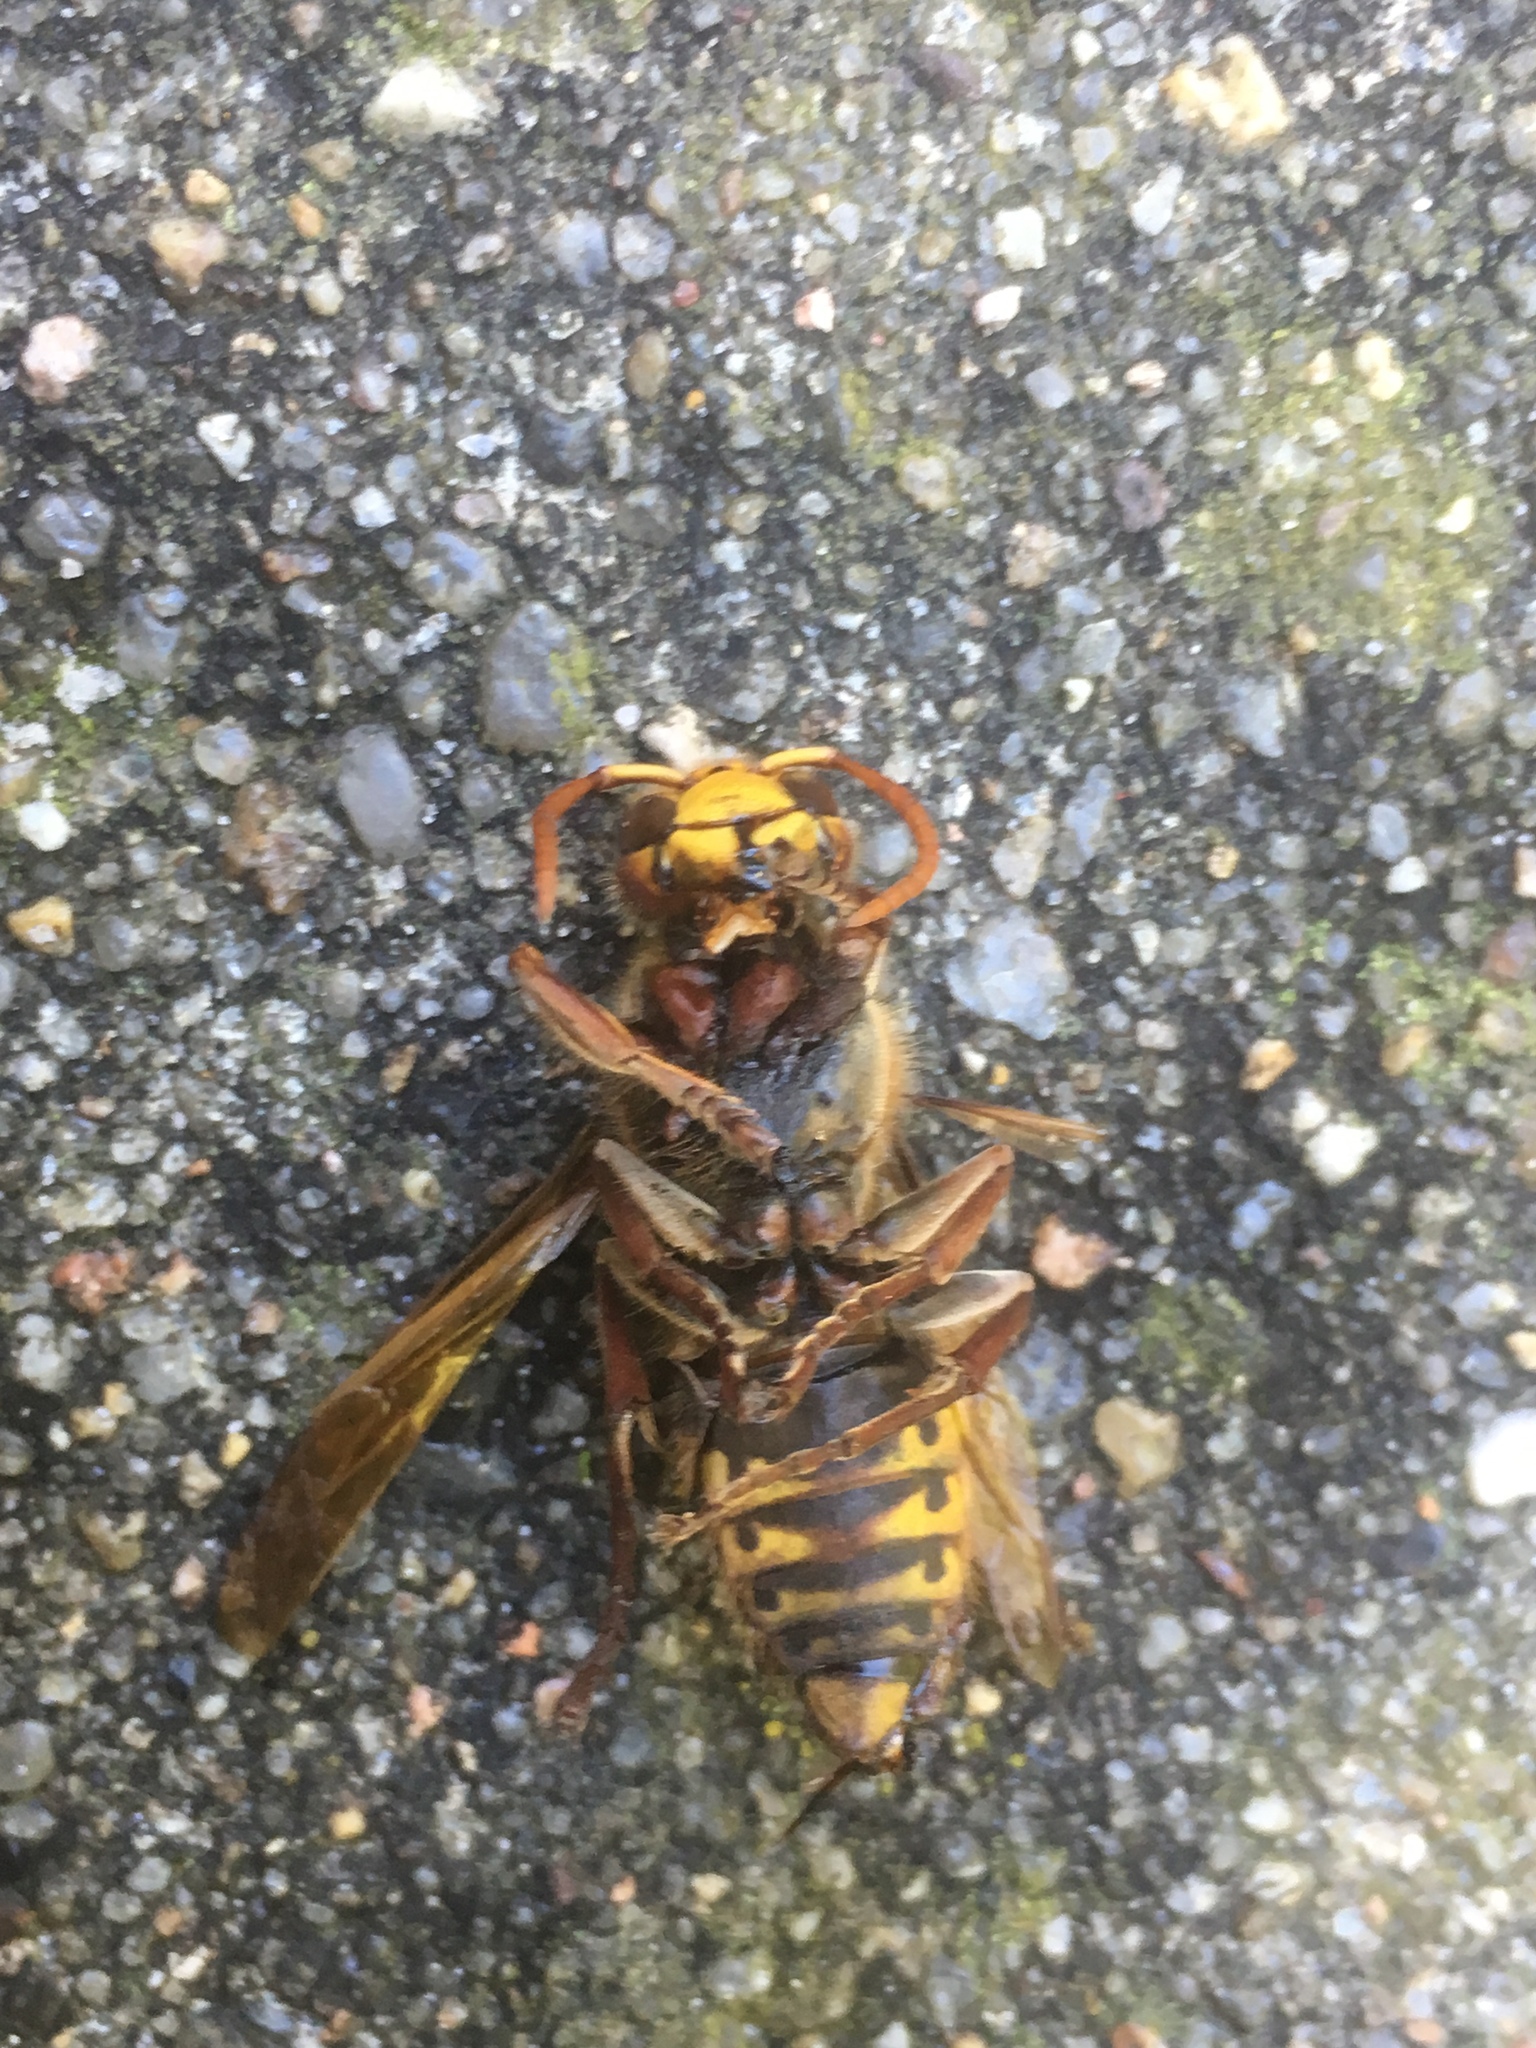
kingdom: Animalia
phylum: Arthropoda
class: Insecta
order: Hymenoptera
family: Vespidae
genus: Vespa
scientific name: Vespa crabro
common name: Hornet
